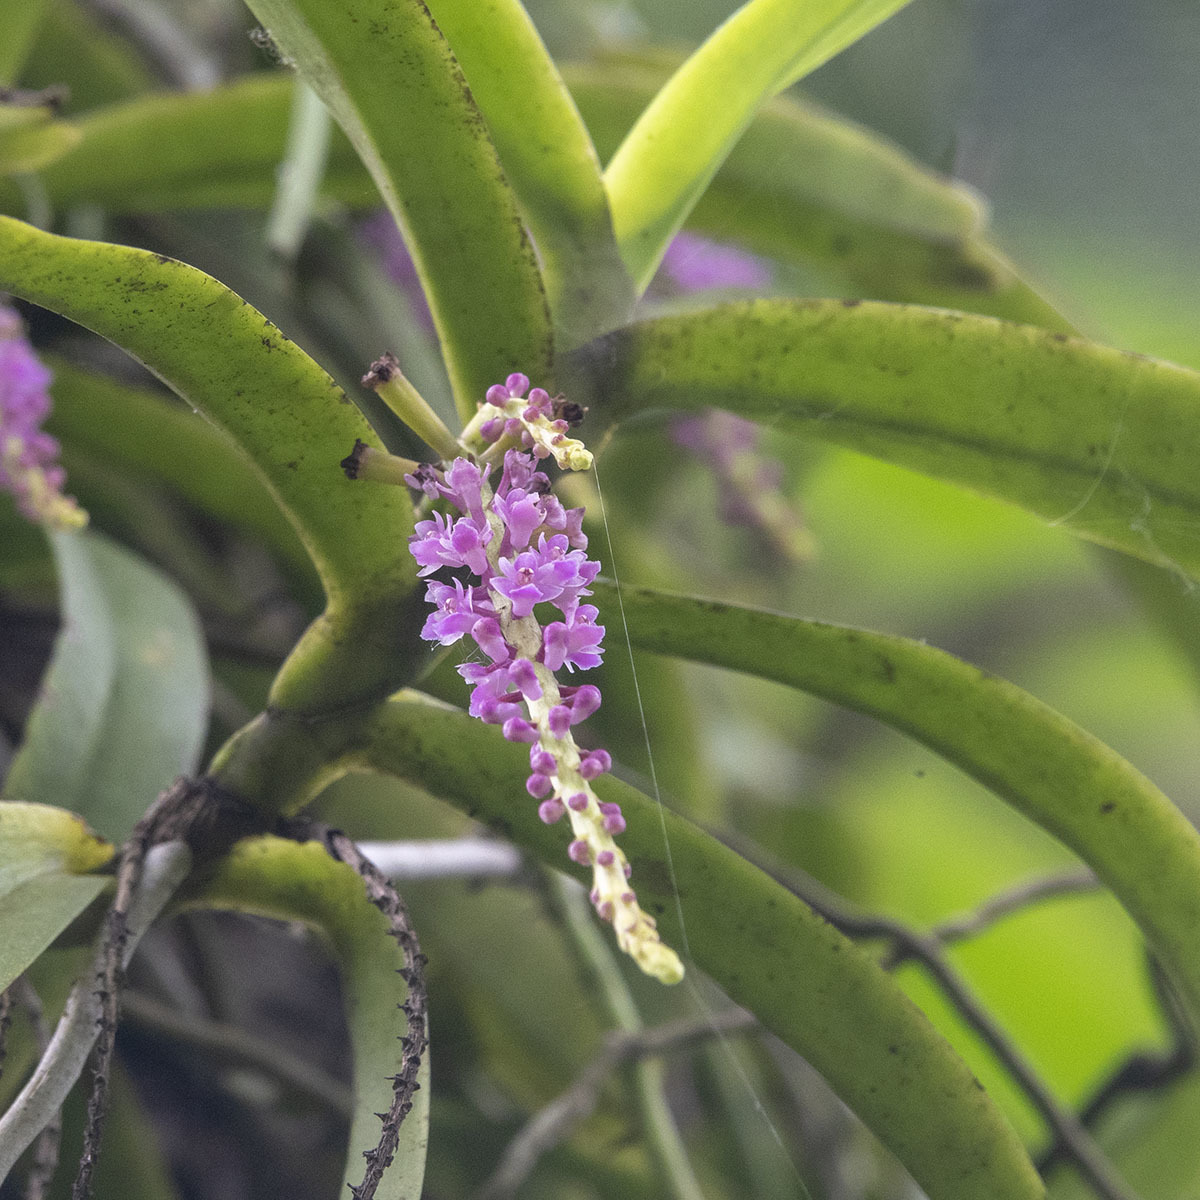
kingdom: Plantae
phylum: Tracheophyta
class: Liliopsida
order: Asparagales
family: Orchidaceae
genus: Smitinandia
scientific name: Smitinandia micrantha
